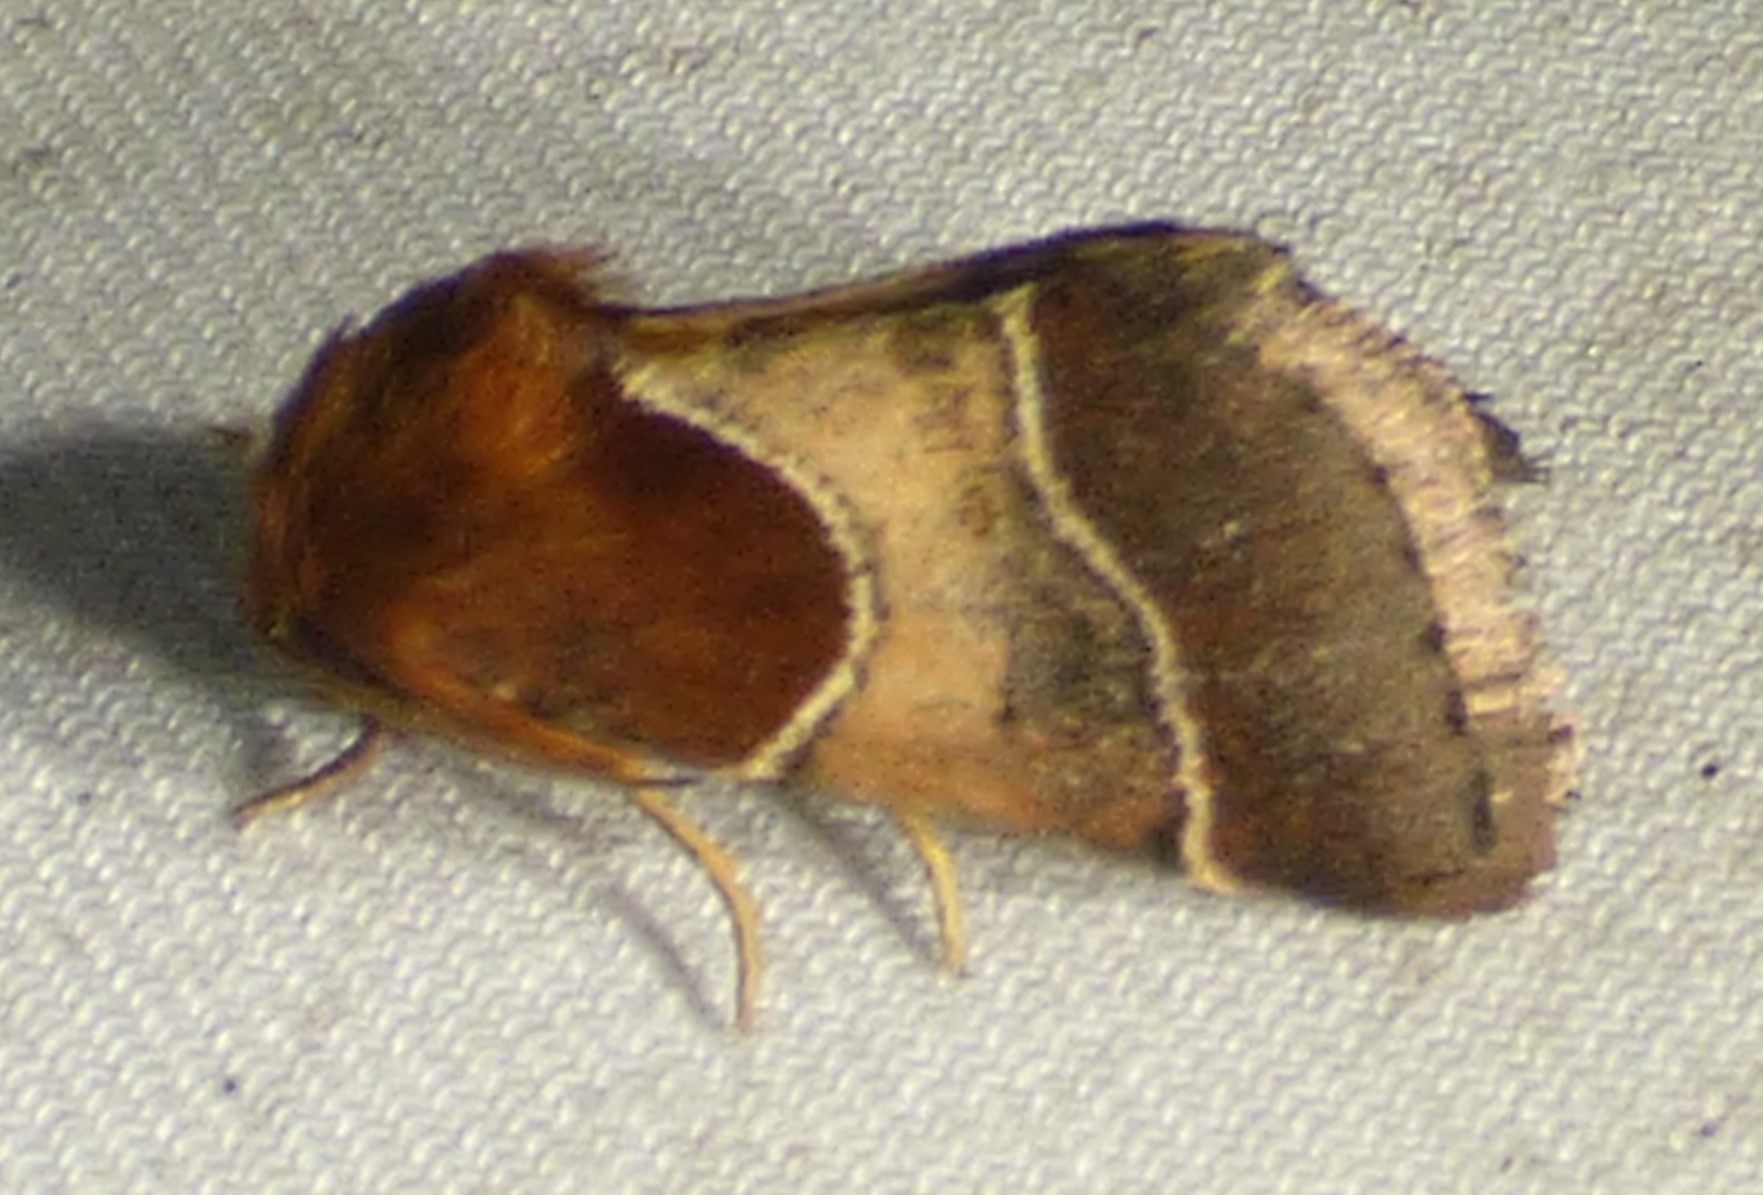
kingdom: Animalia
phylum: Arthropoda
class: Insecta
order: Lepidoptera
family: Noctuidae
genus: Schinia
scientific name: Schinia arcigera
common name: Arcigera flower moth
